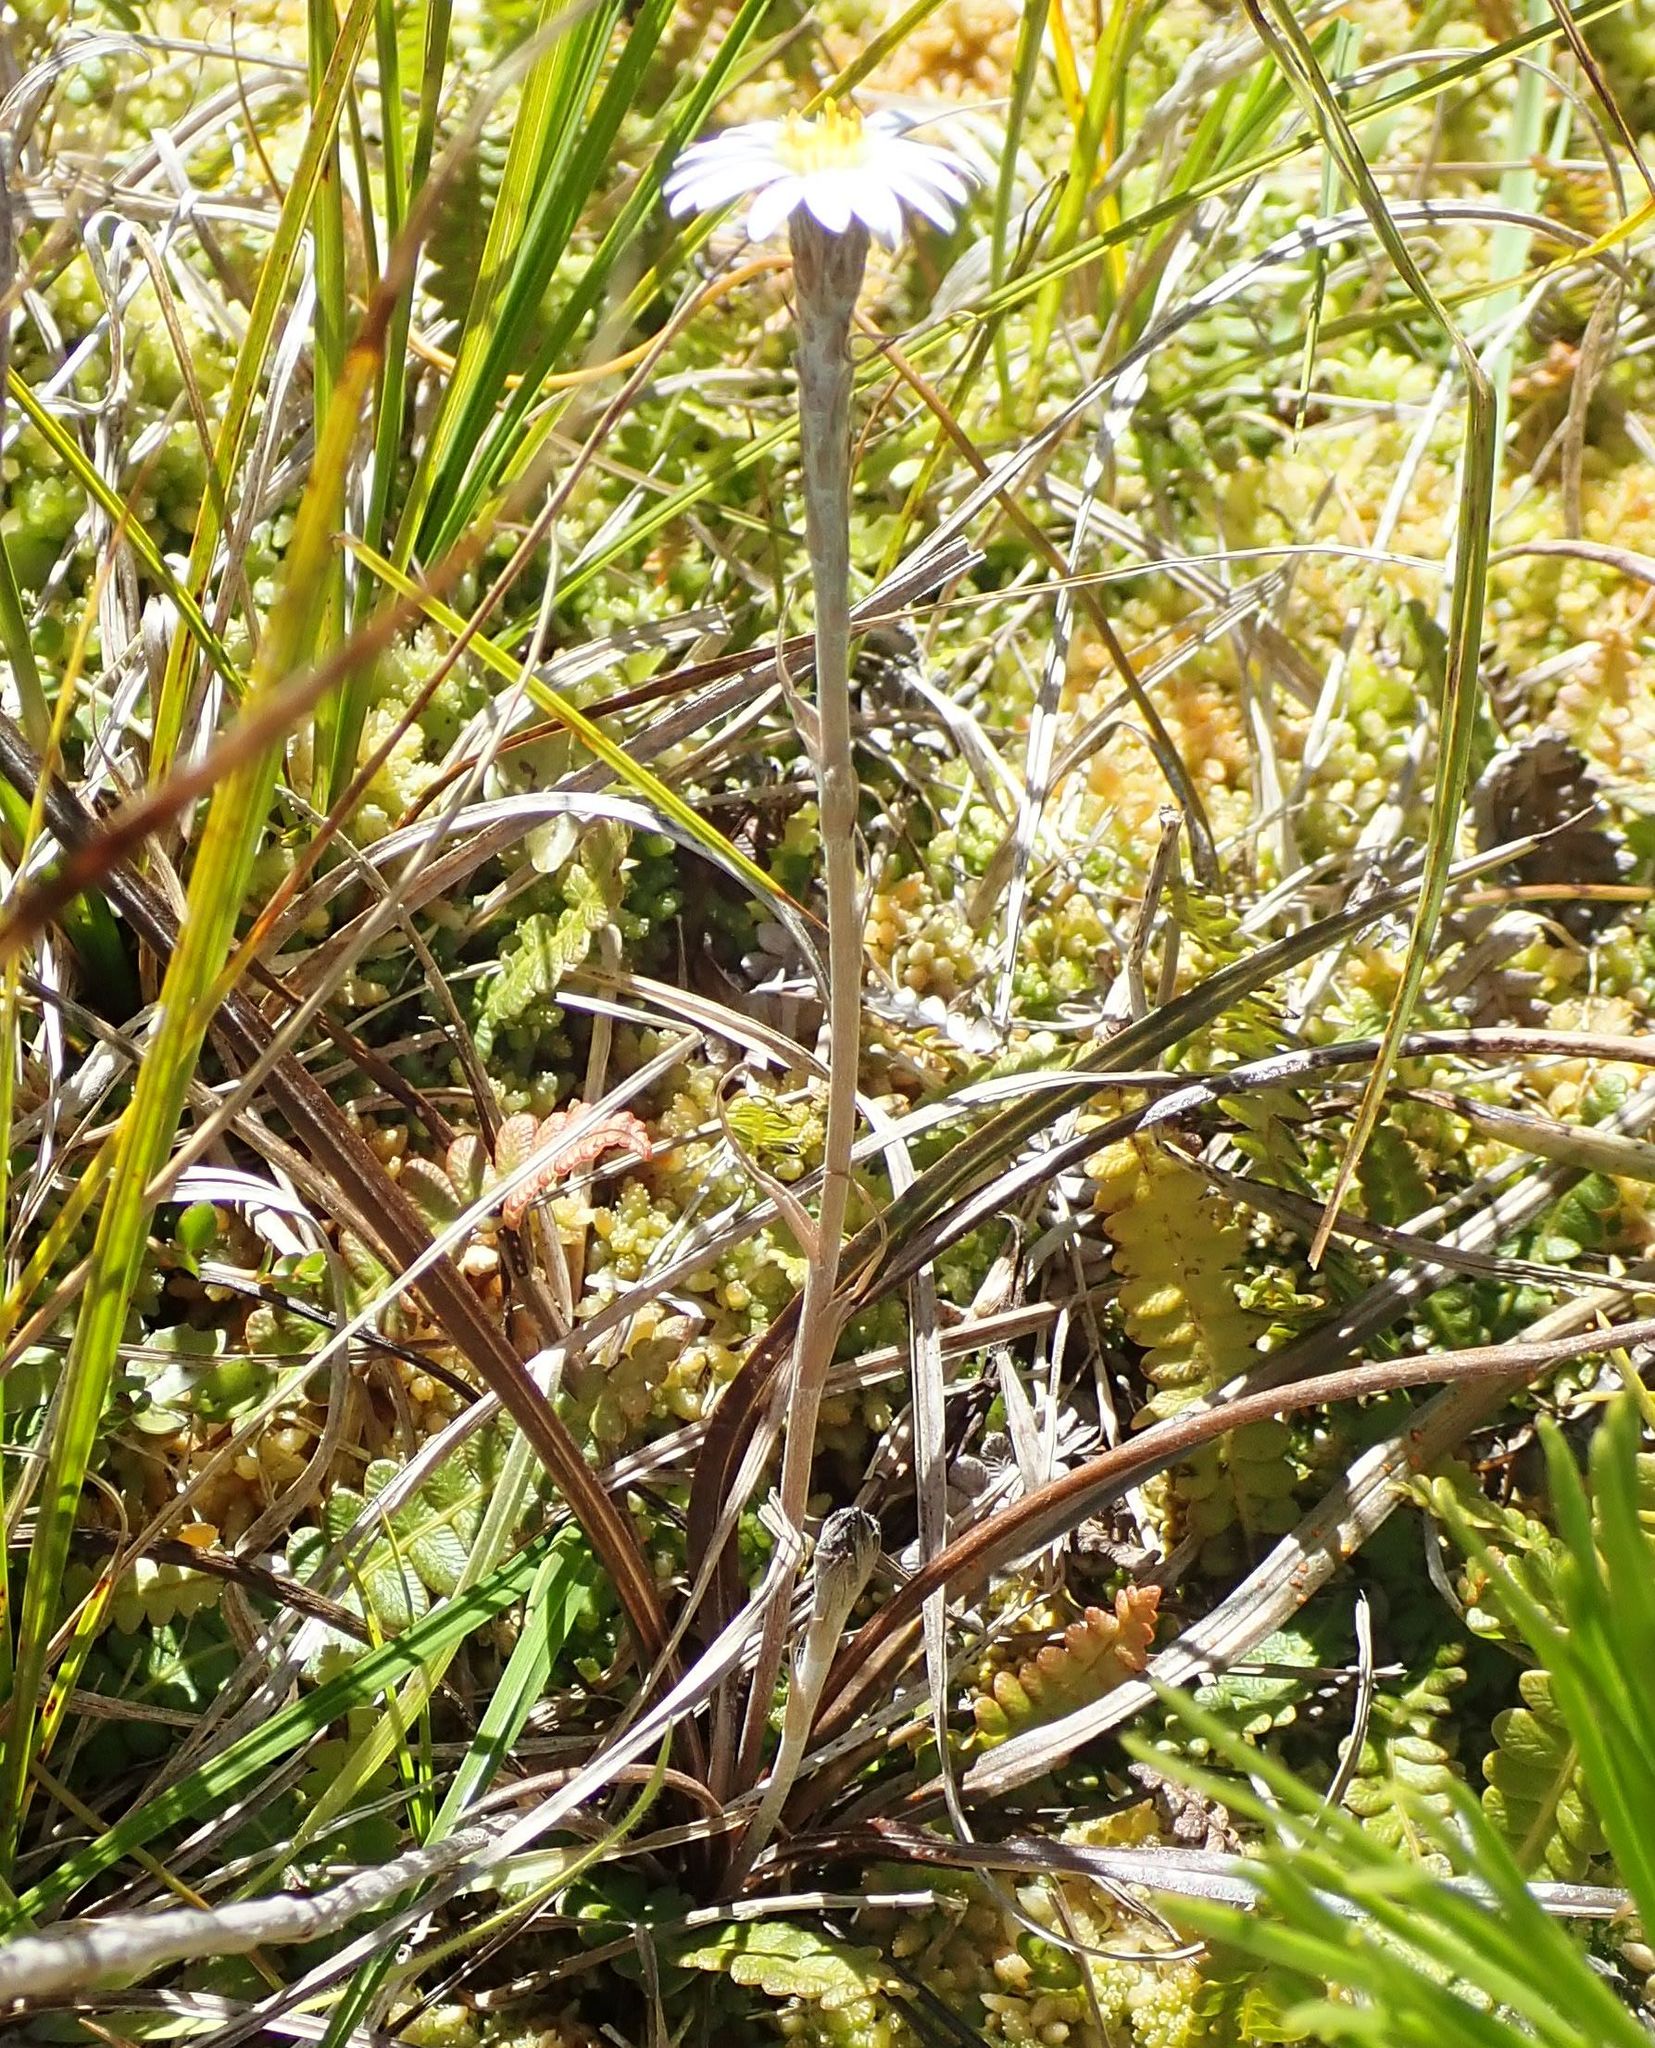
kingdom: Plantae
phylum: Tracheophyta
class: Magnoliopsida
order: Asterales
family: Asteraceae
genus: Celmisia
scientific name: Celmisia gracilenta
